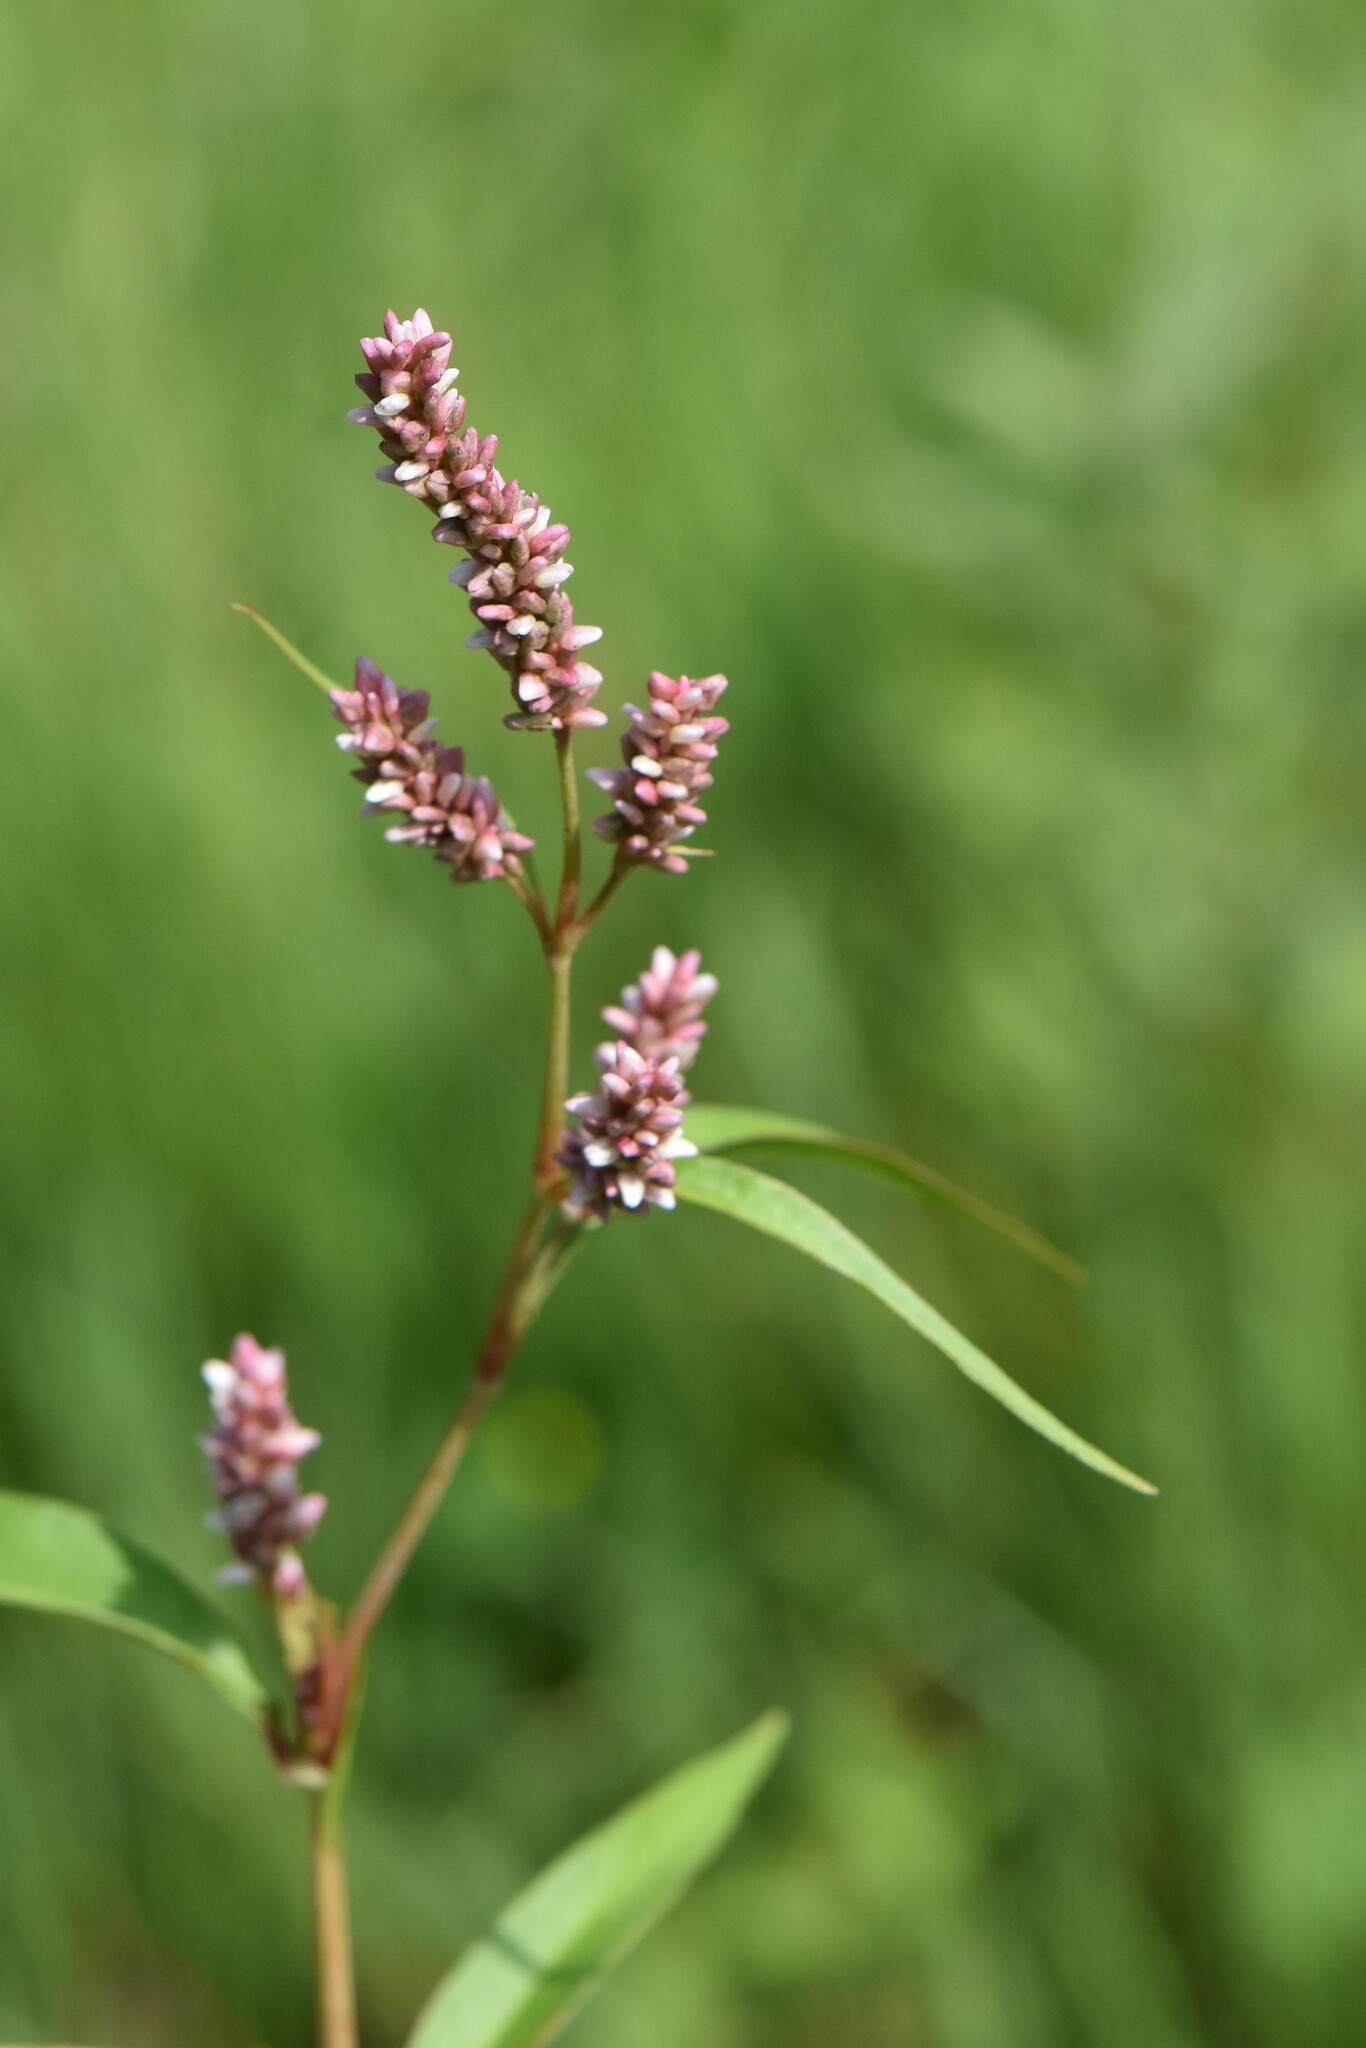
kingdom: Plantae
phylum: Tracheophyta
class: Magnoliopsida
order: Caryophyllales
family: Polygonaceae
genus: Persicaria
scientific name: Persicaria lapathifolia
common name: Curlytop knotweed
